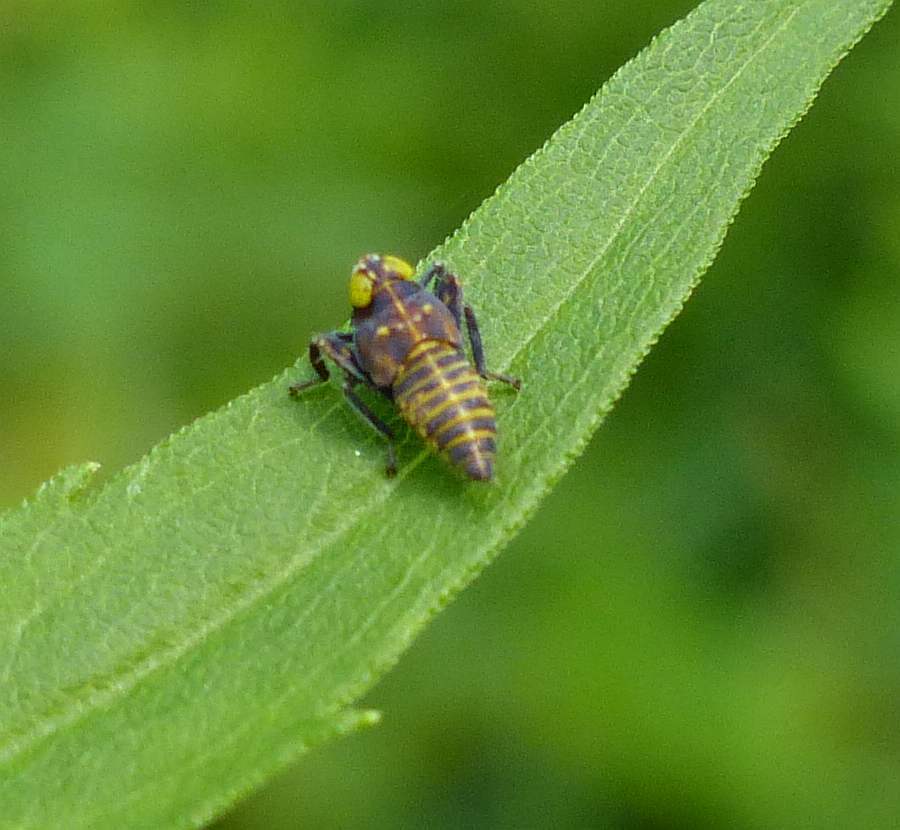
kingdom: Animalia
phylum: Arthropoda
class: Insecta
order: Hemiptera
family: Cicadellidae
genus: Jikradia
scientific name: Jikradia olitoria
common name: Coppery leafhopper
